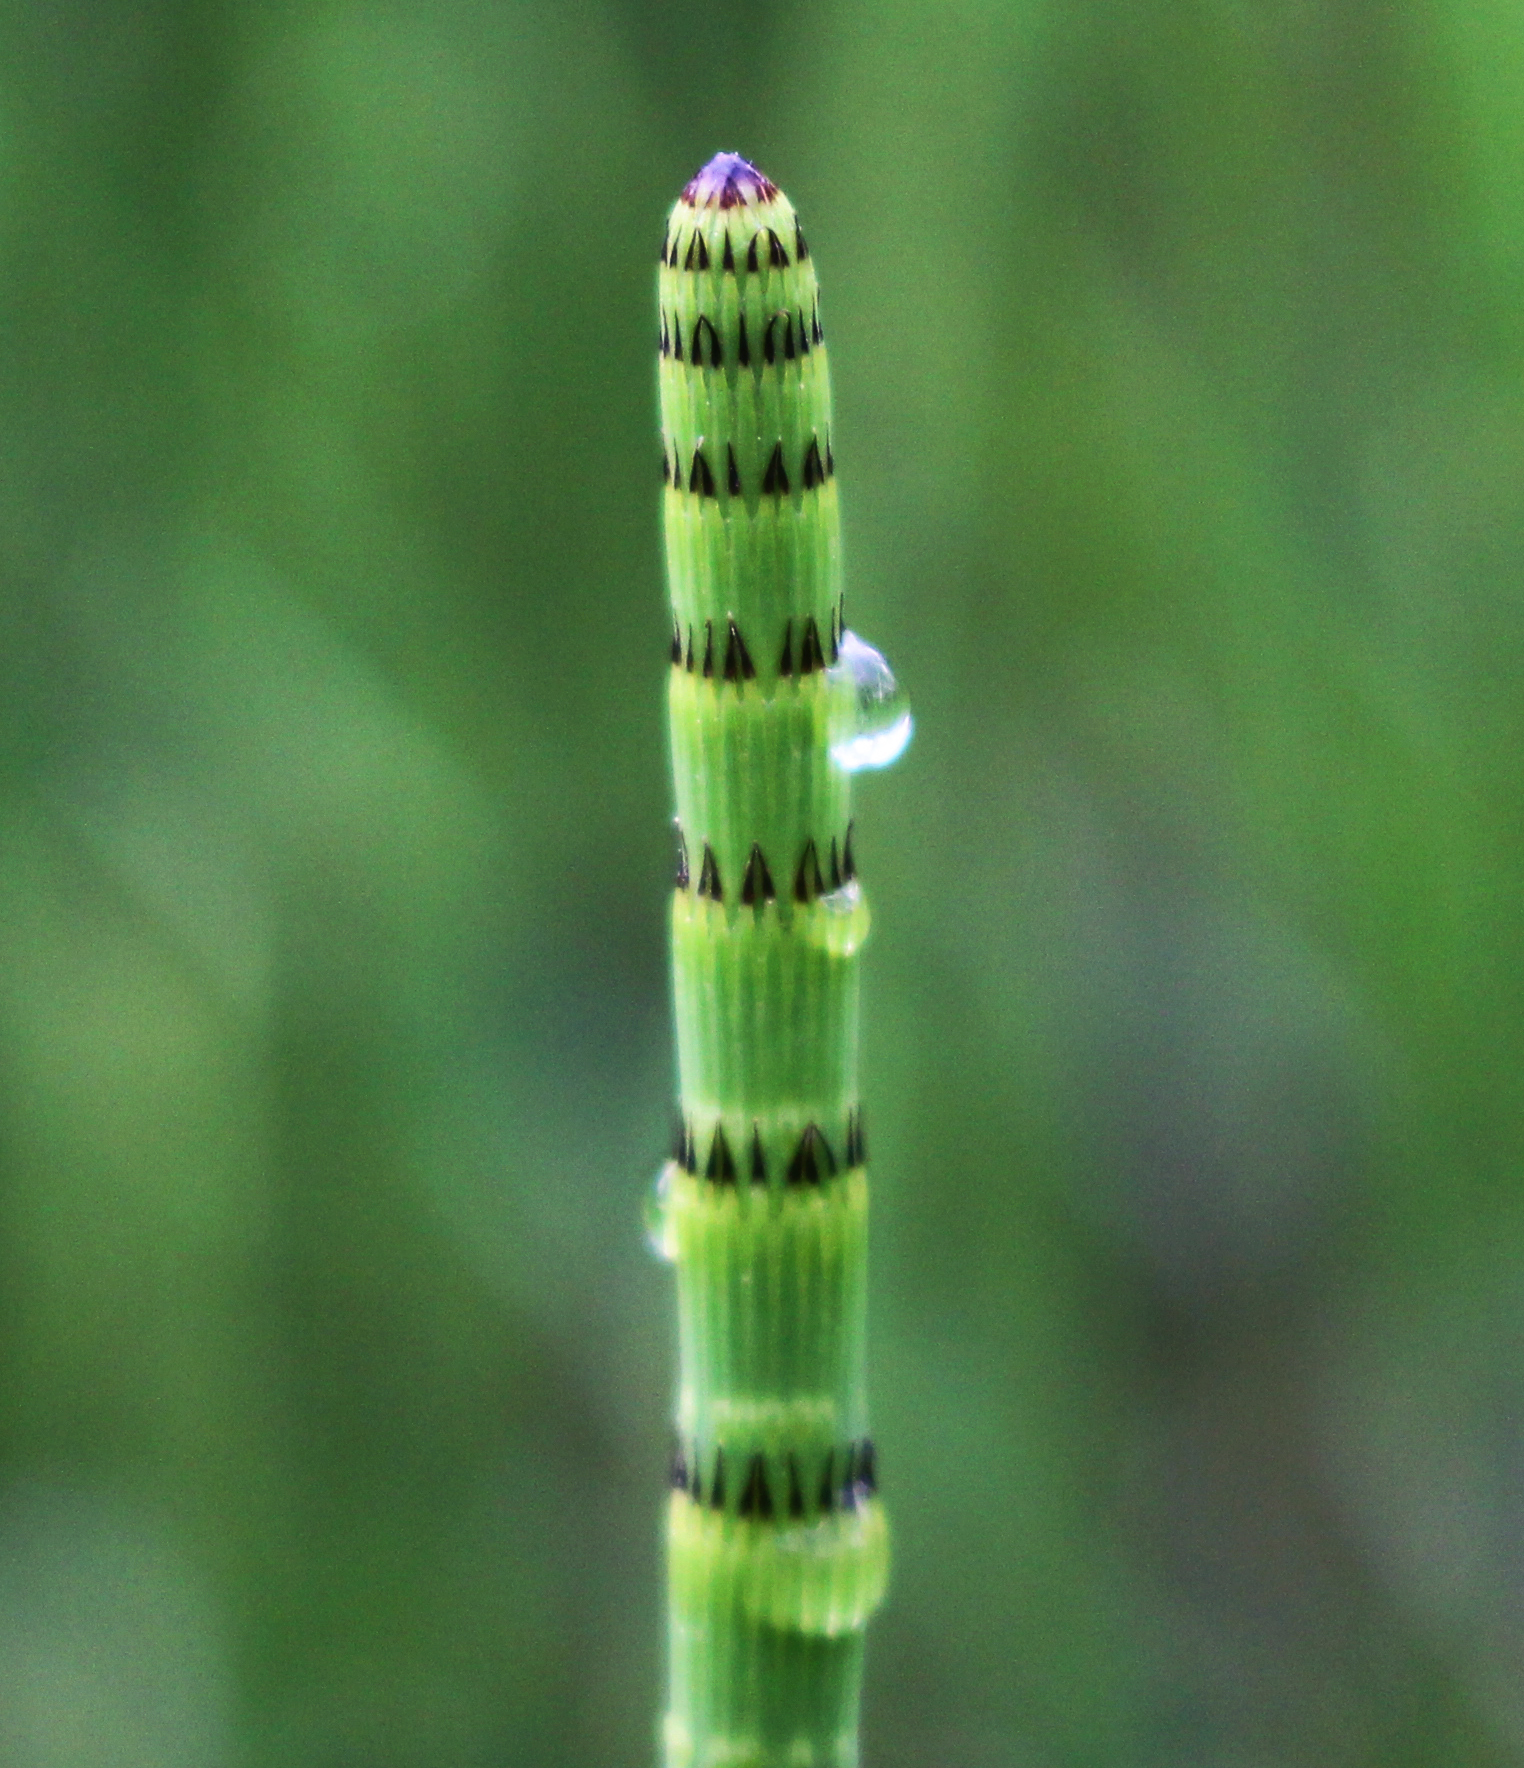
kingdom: Plantae
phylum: Tracheophyta
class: Polypodiopsida
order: Equisetales
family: Equisetaceae
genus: Equisetum
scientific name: Equisetum fluviatile
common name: Water horsetail
